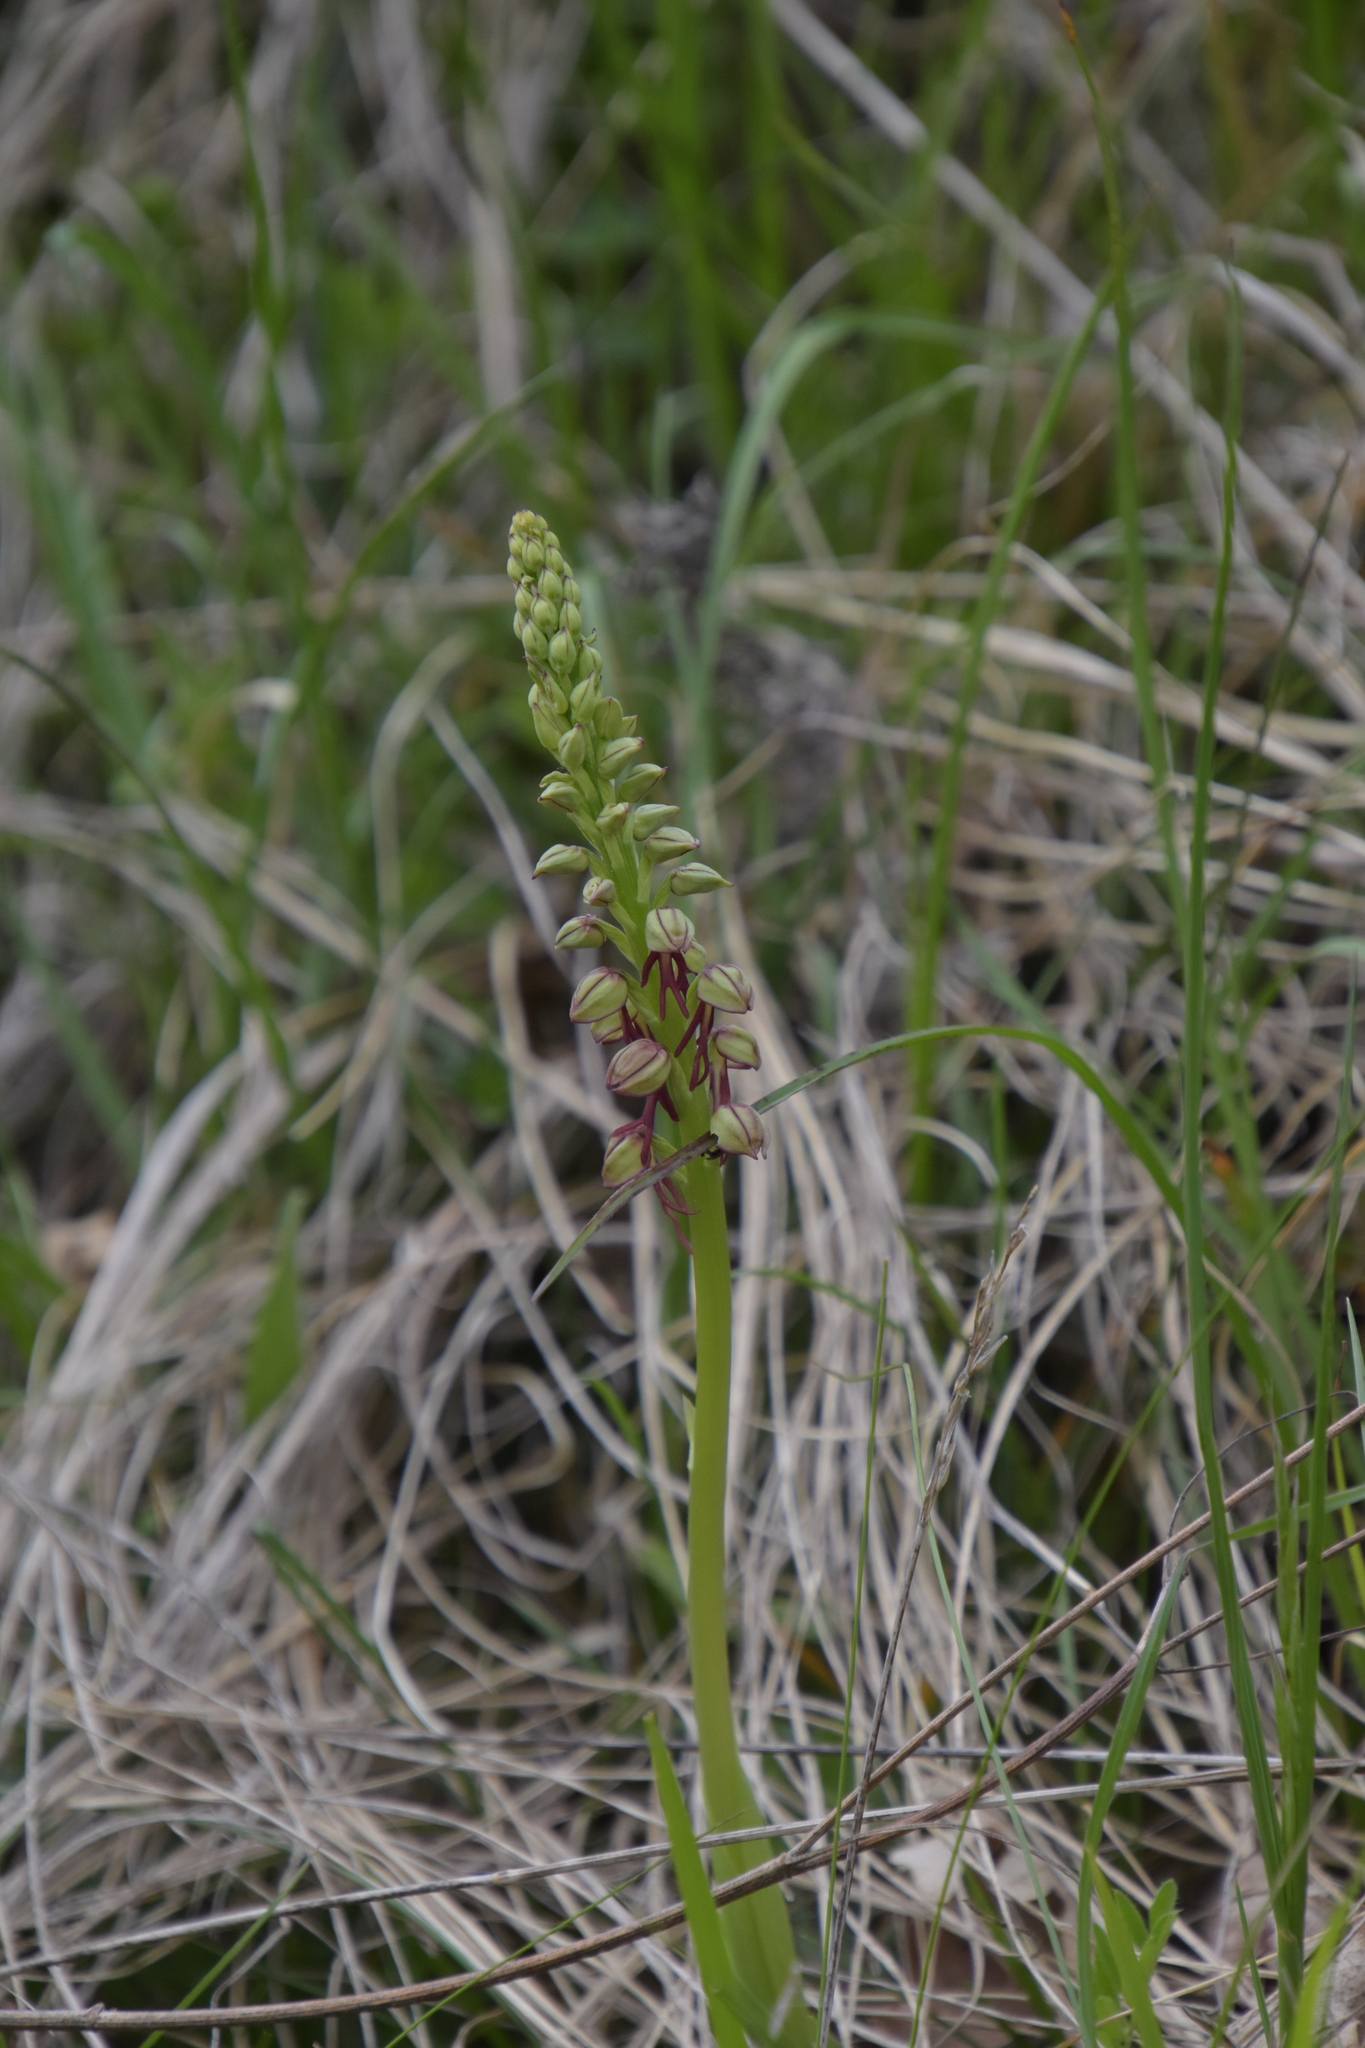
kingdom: Plantae
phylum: Tracheophyta
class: Liliopsida
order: Asparagales
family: Orchidaceae
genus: Orchis
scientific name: Orchis anthropophora
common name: Man orchid
